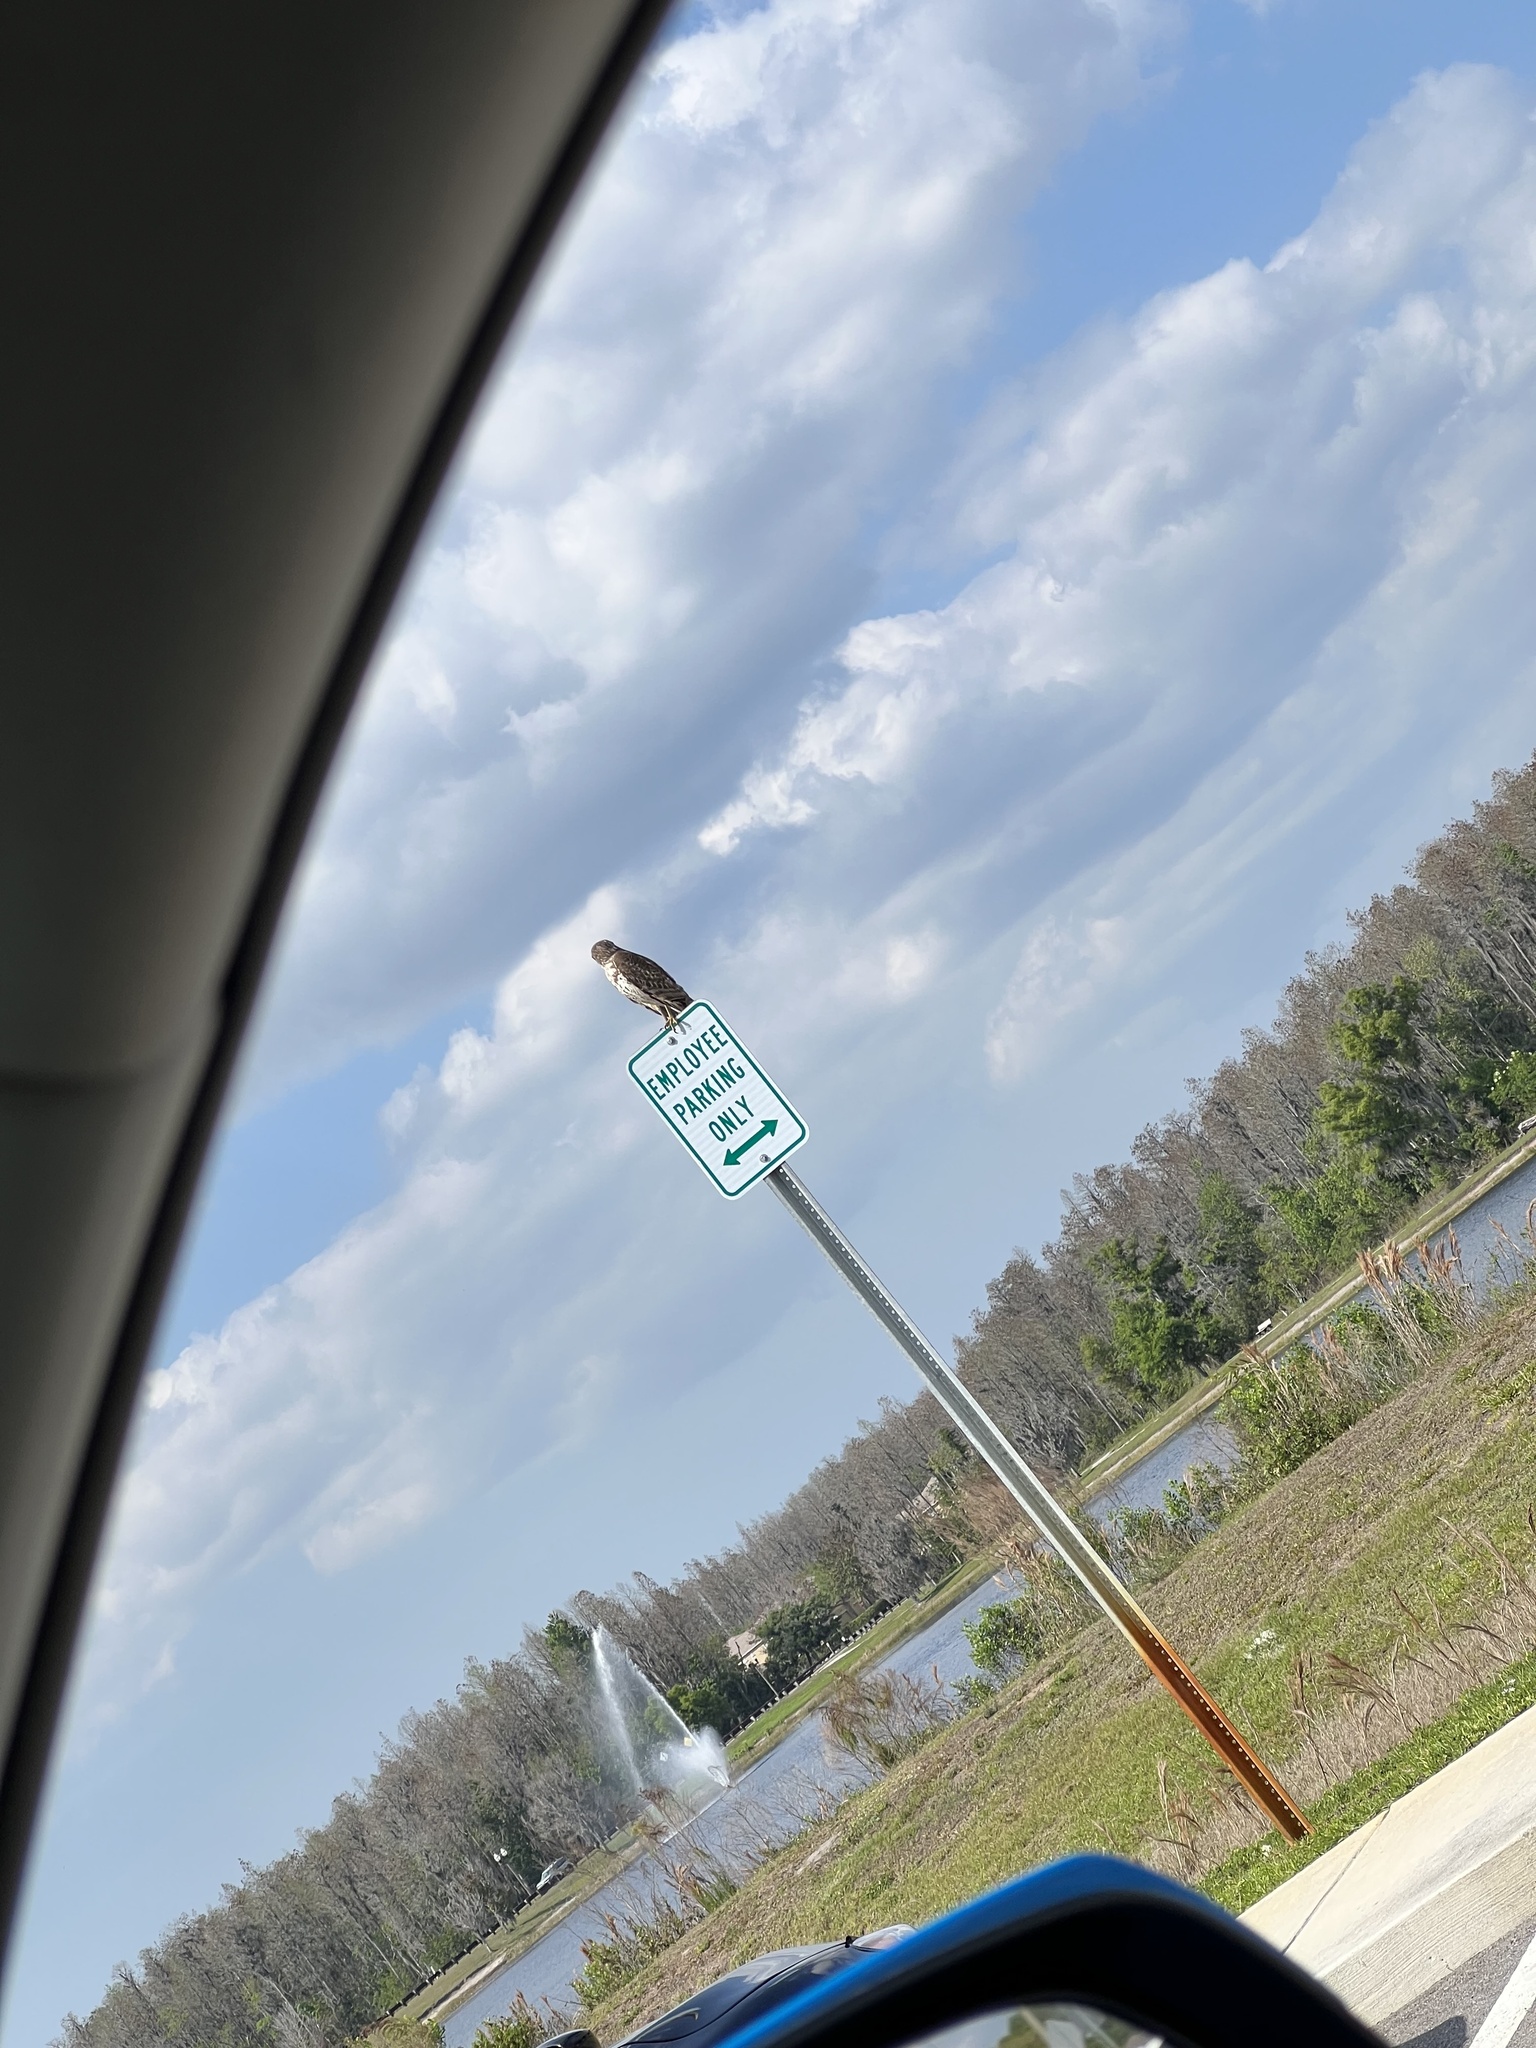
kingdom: Animalia
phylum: Chordata
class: Aves
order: Accipitriformes
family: Accipitridae
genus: Buteo
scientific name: Buteo lineatus
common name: Red-shouldered hawk
